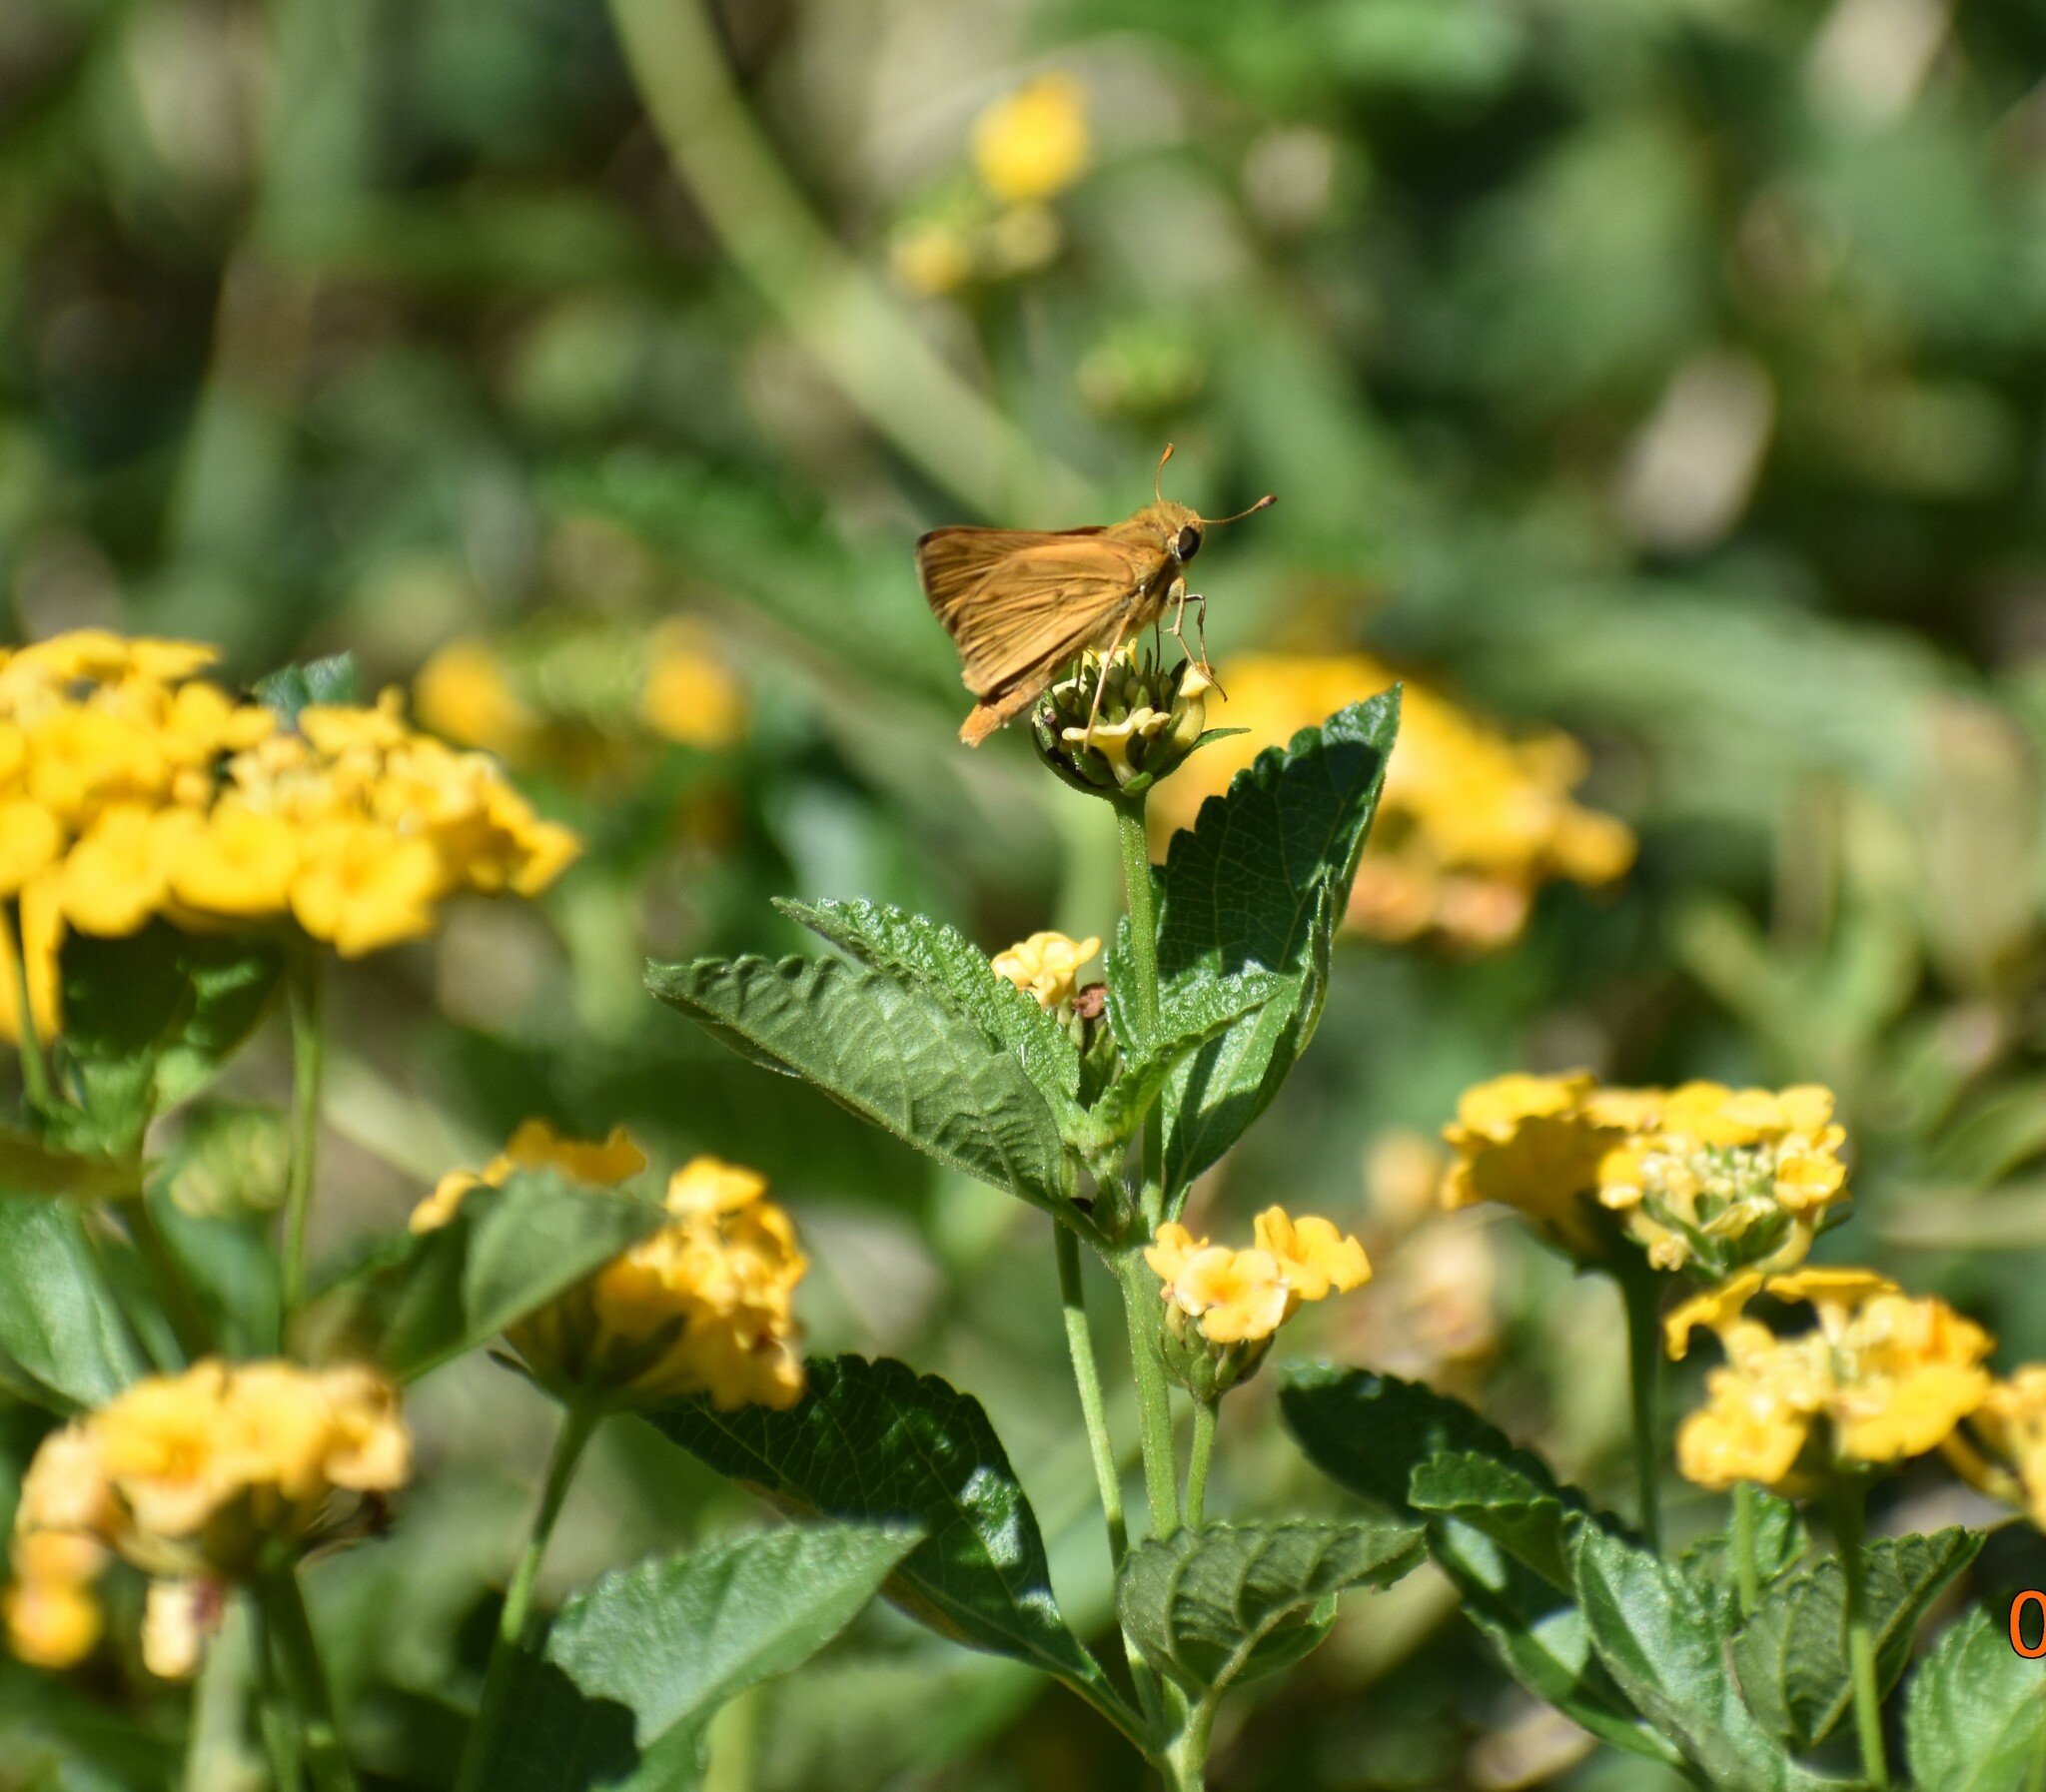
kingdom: Animalia
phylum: Arthropoda
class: Insecta
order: Lepidoptera
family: Hesperiidae
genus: Hylephila
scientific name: Hylephila phyleus
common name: Fiery skipper
